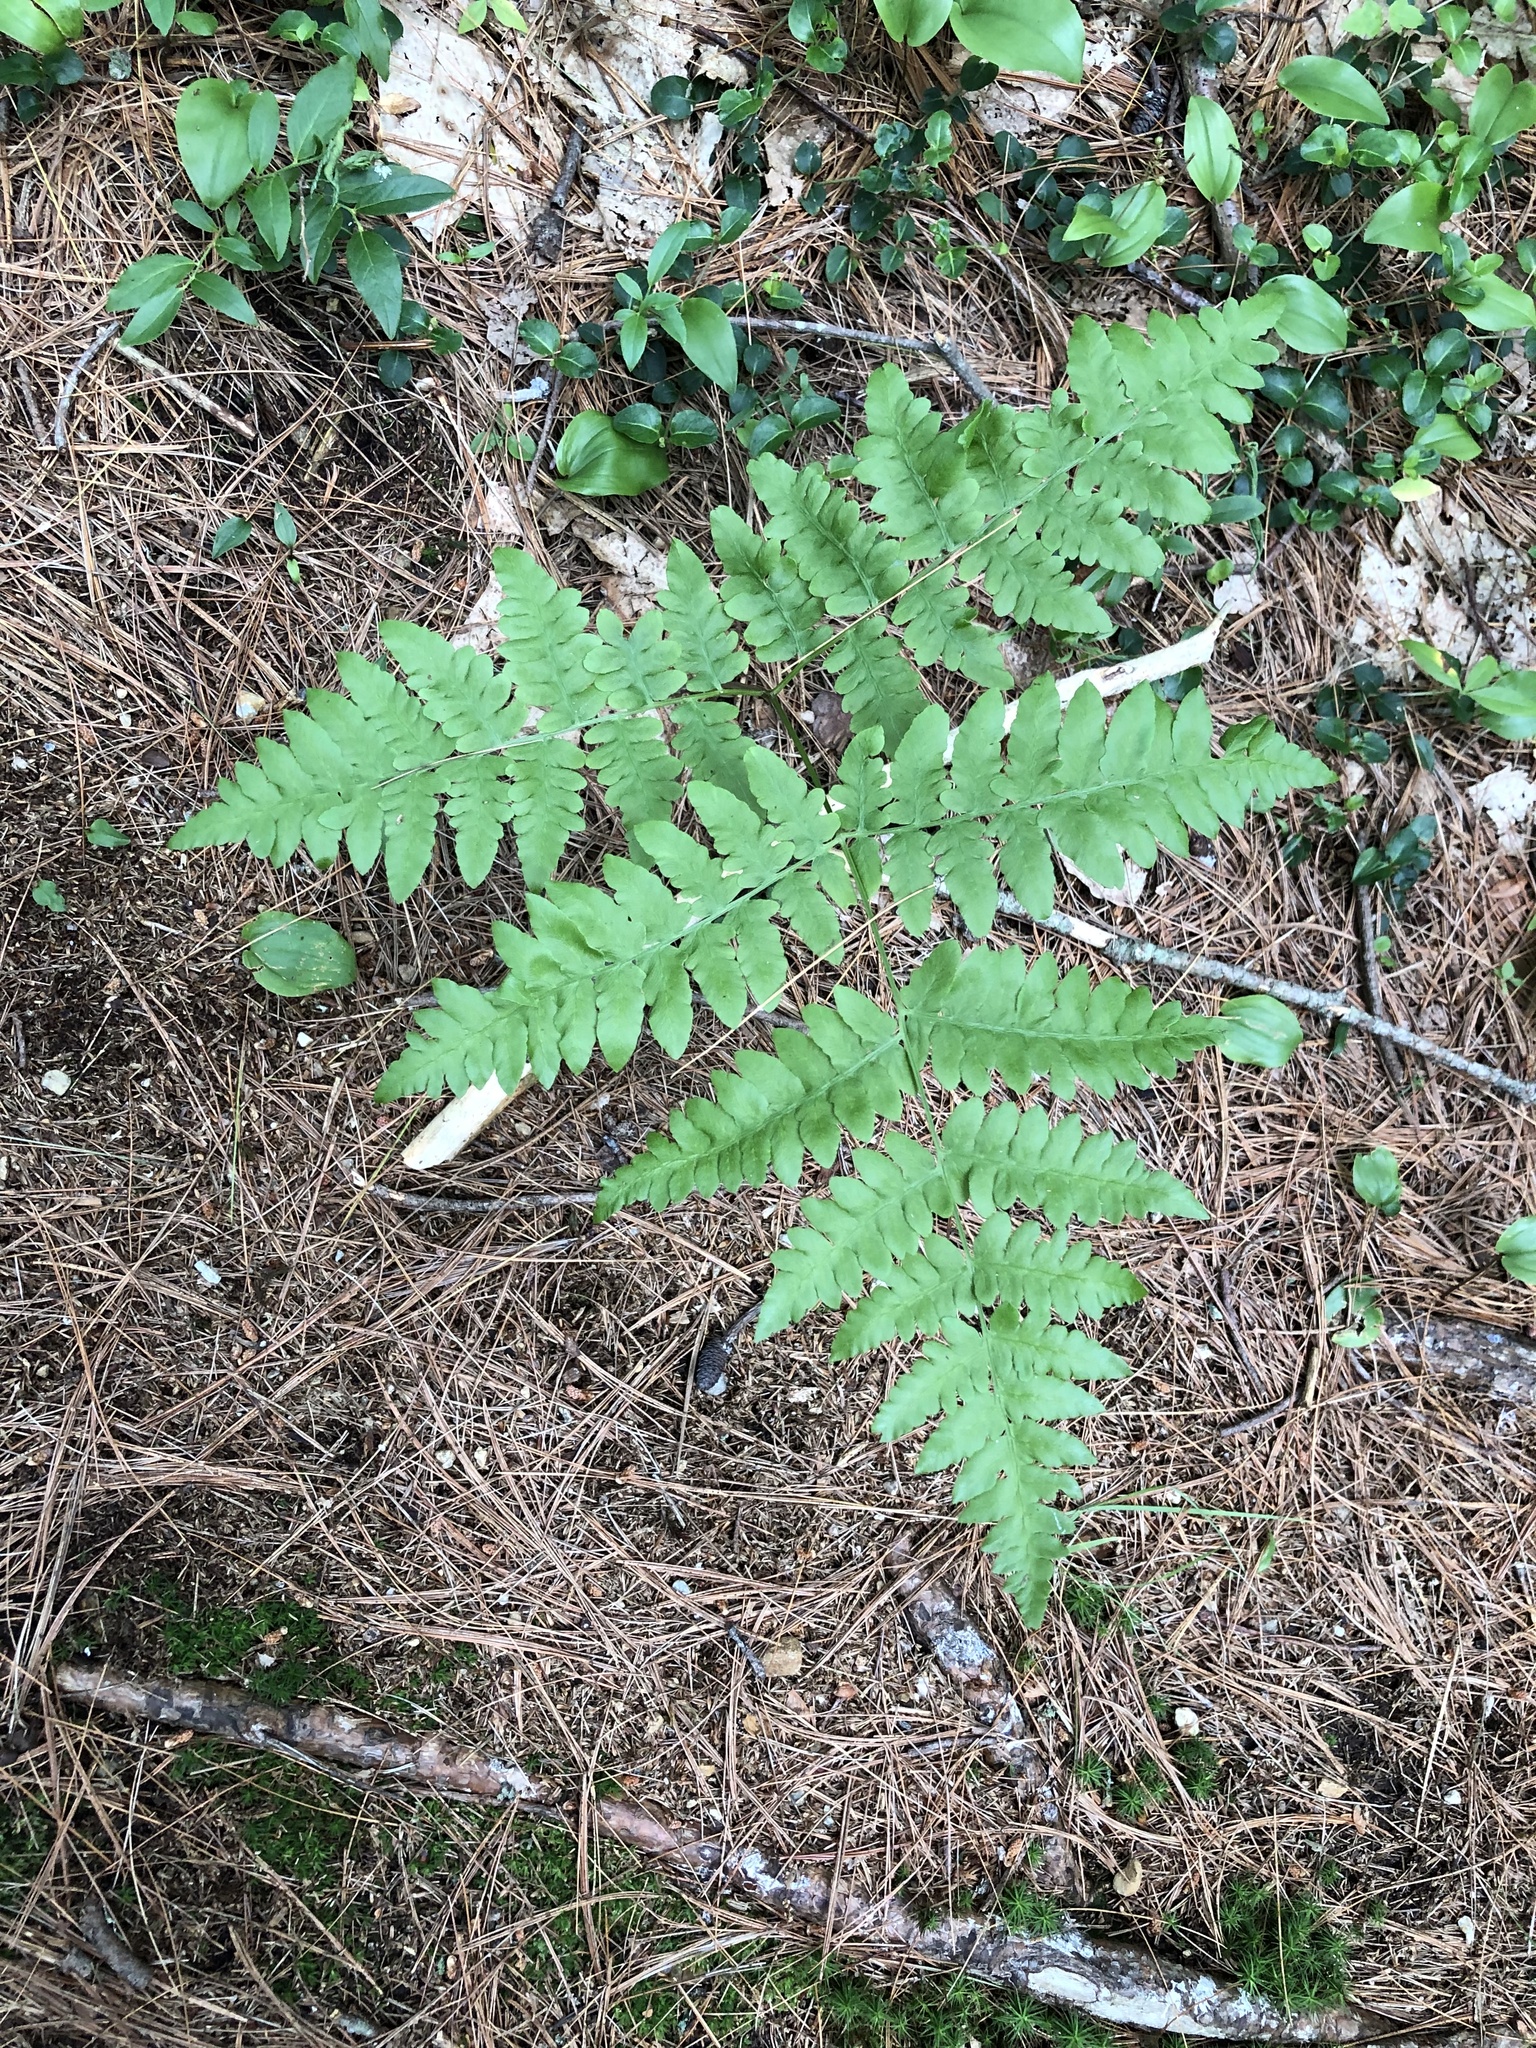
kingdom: Plantae
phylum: Tracheophyta
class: Polypodiopsida
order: Polypodiales
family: Dennstaedtiaceae
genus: Pteridium
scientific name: Pteridium aquilinum
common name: Bracken
